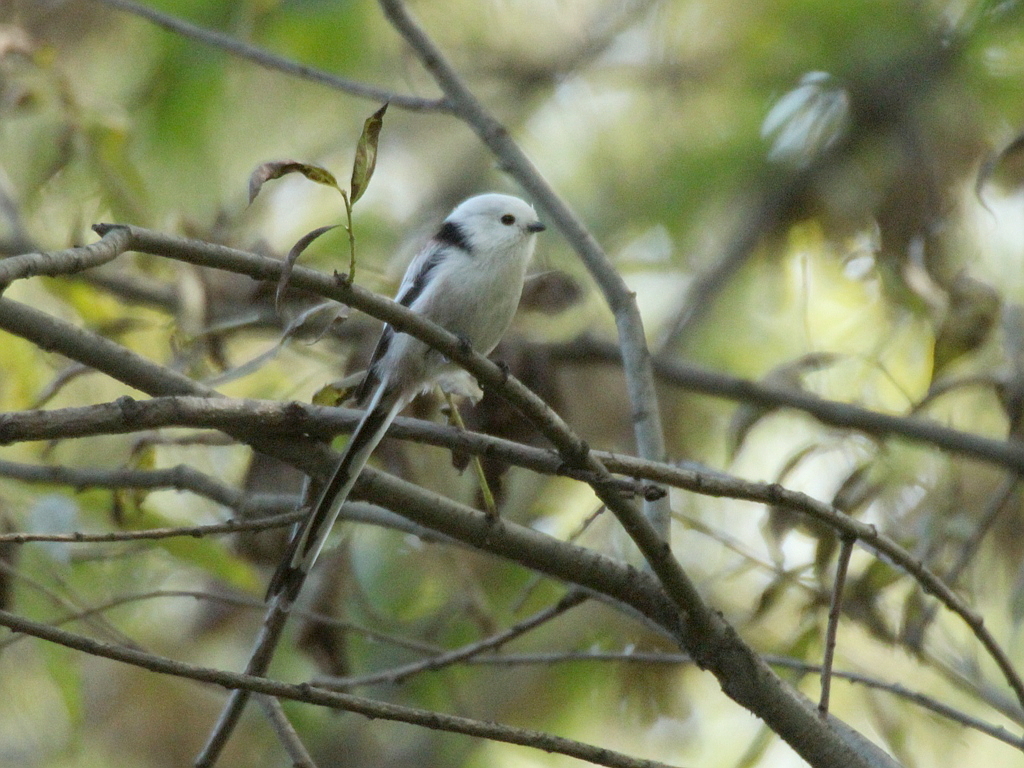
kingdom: Animalia
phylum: Chordata
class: Aves
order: Passeriformes
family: Aegithalidae
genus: Aegithalos
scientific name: Aegithalos caudatus
